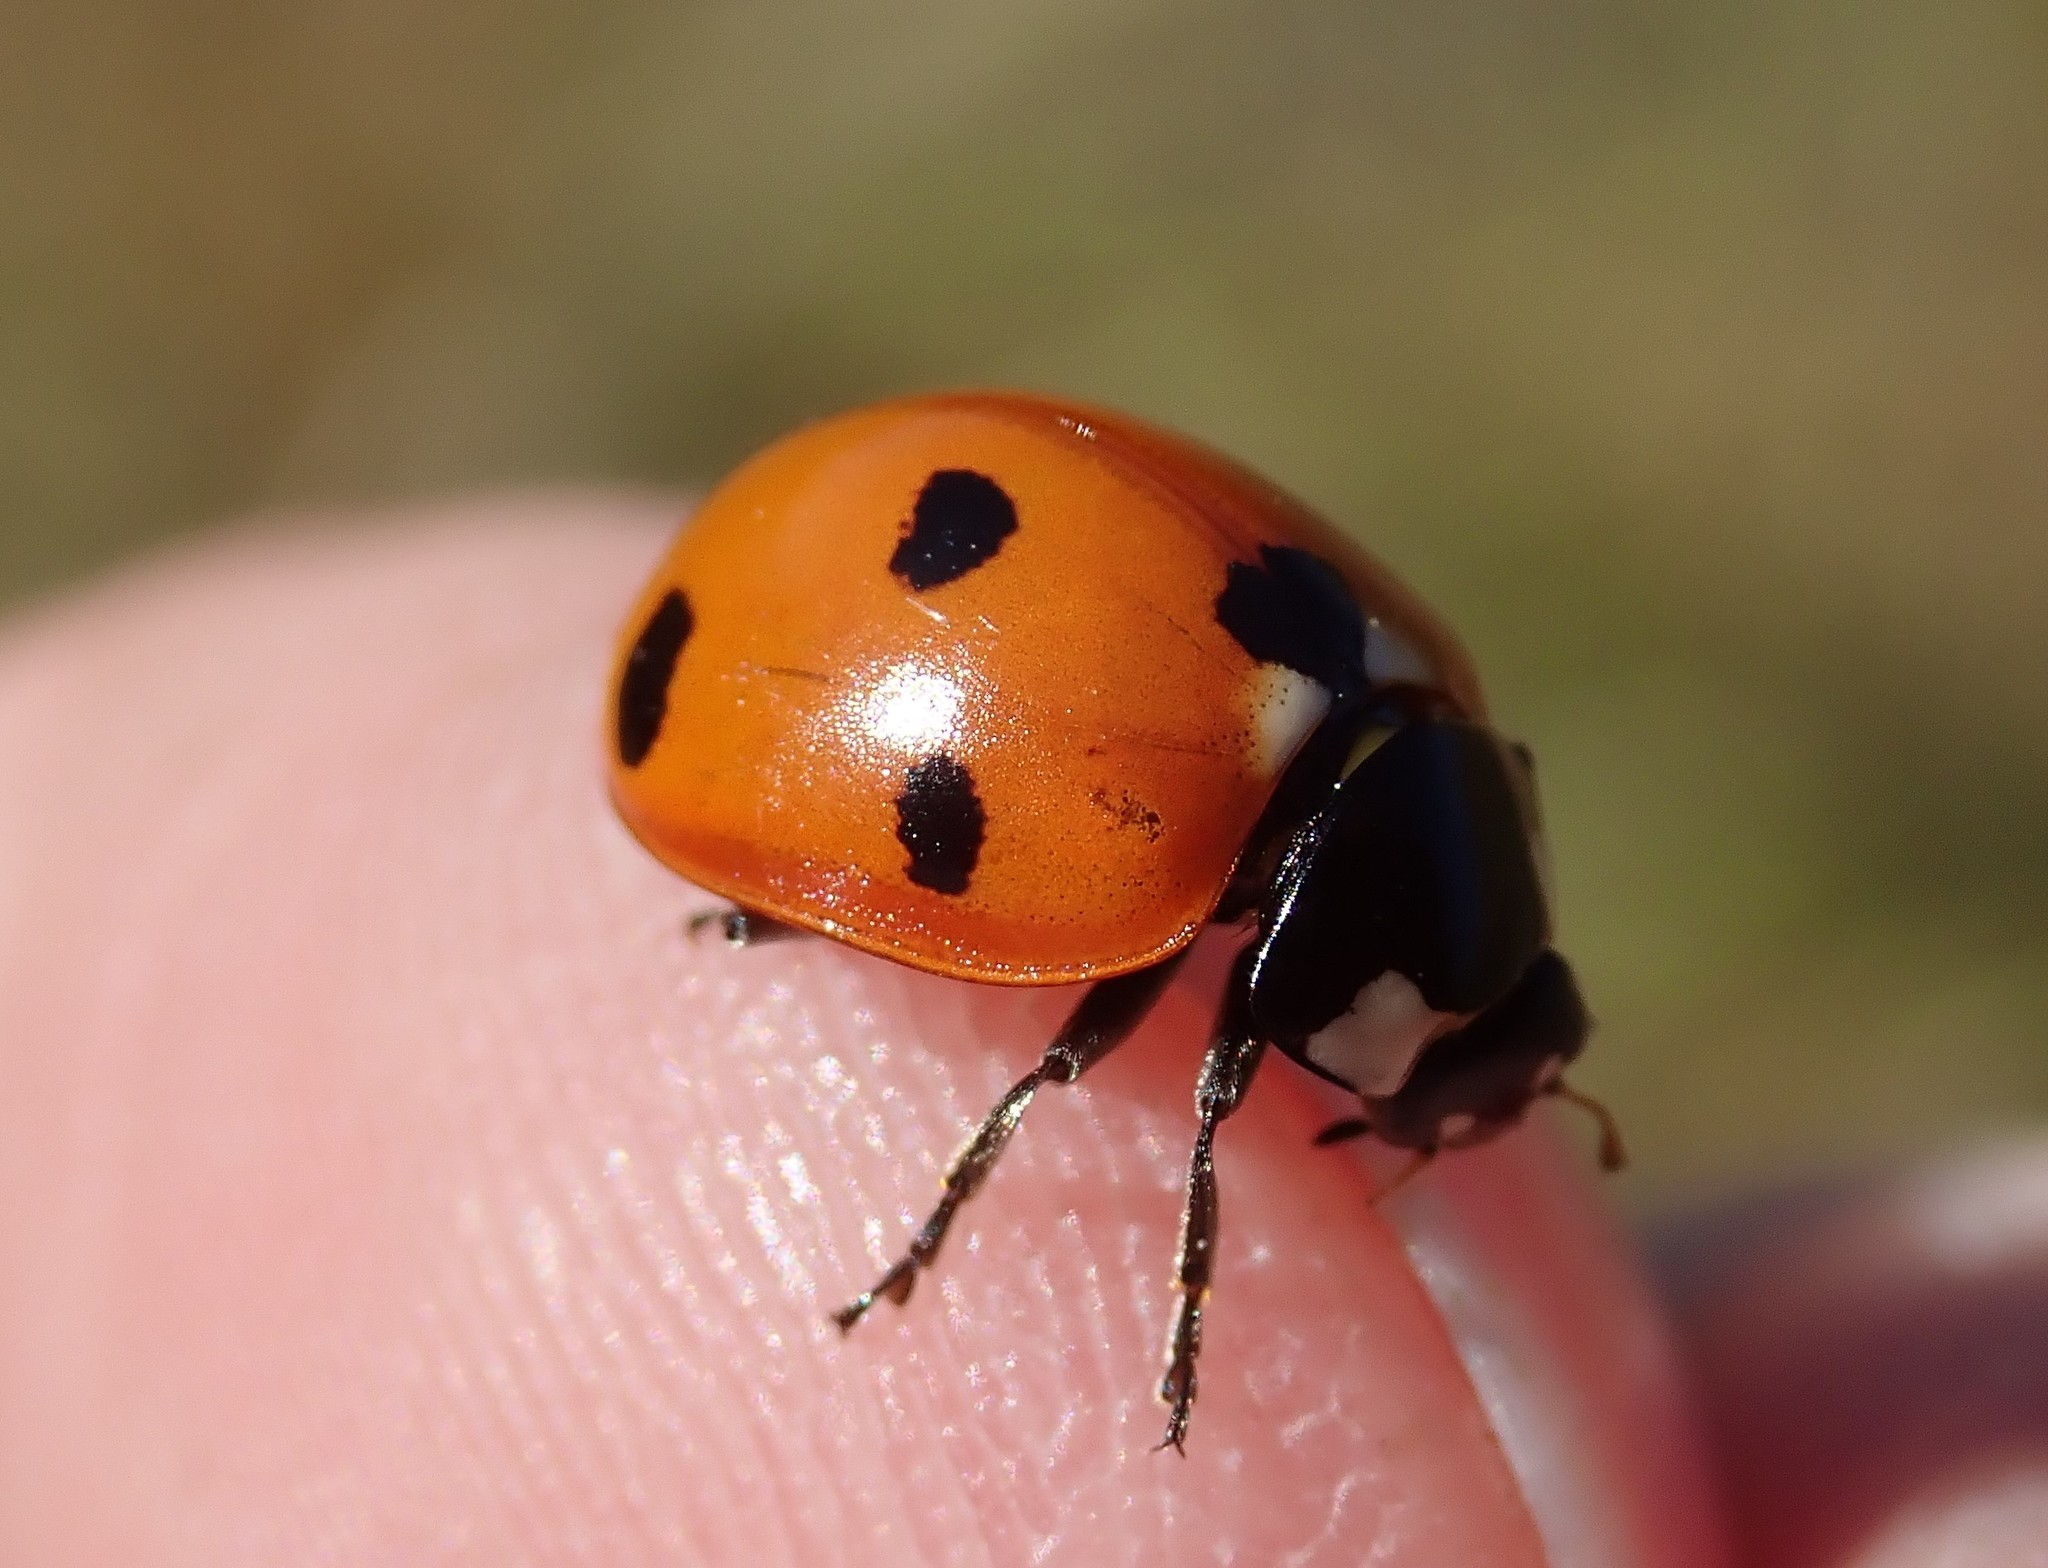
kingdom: Animalia
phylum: Arthropoda
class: Insecta
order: Coleoptera
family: Coccinellidae
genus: Coccinella
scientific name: Coccinella septempunctata
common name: Sevenspotted lady beetle
